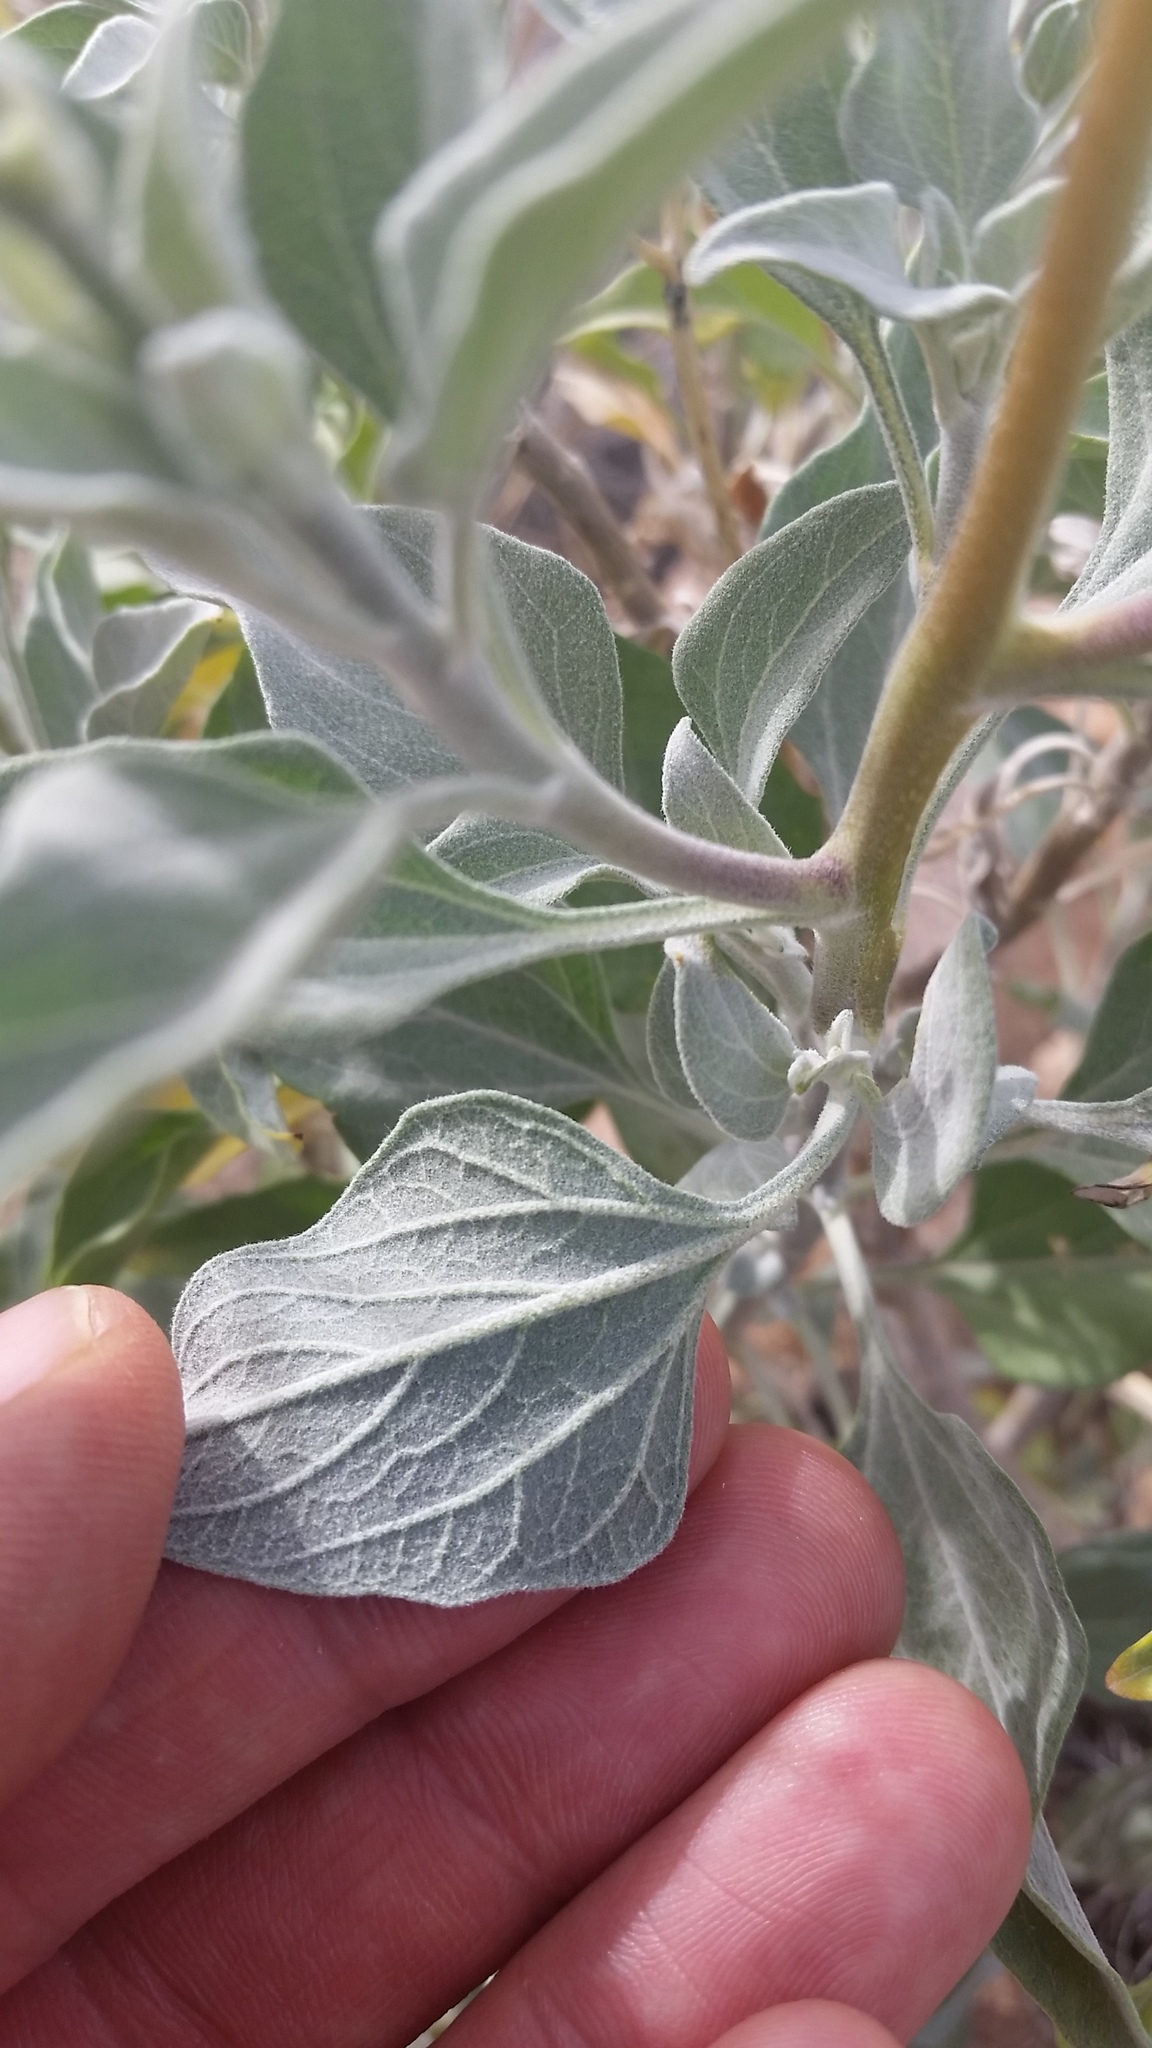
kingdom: Plantae
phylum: Tracheophyta
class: Magnoliopsida
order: Asterales
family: Asteraceae
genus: Encelia
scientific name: Encelia farinosa
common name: Brittlebush
